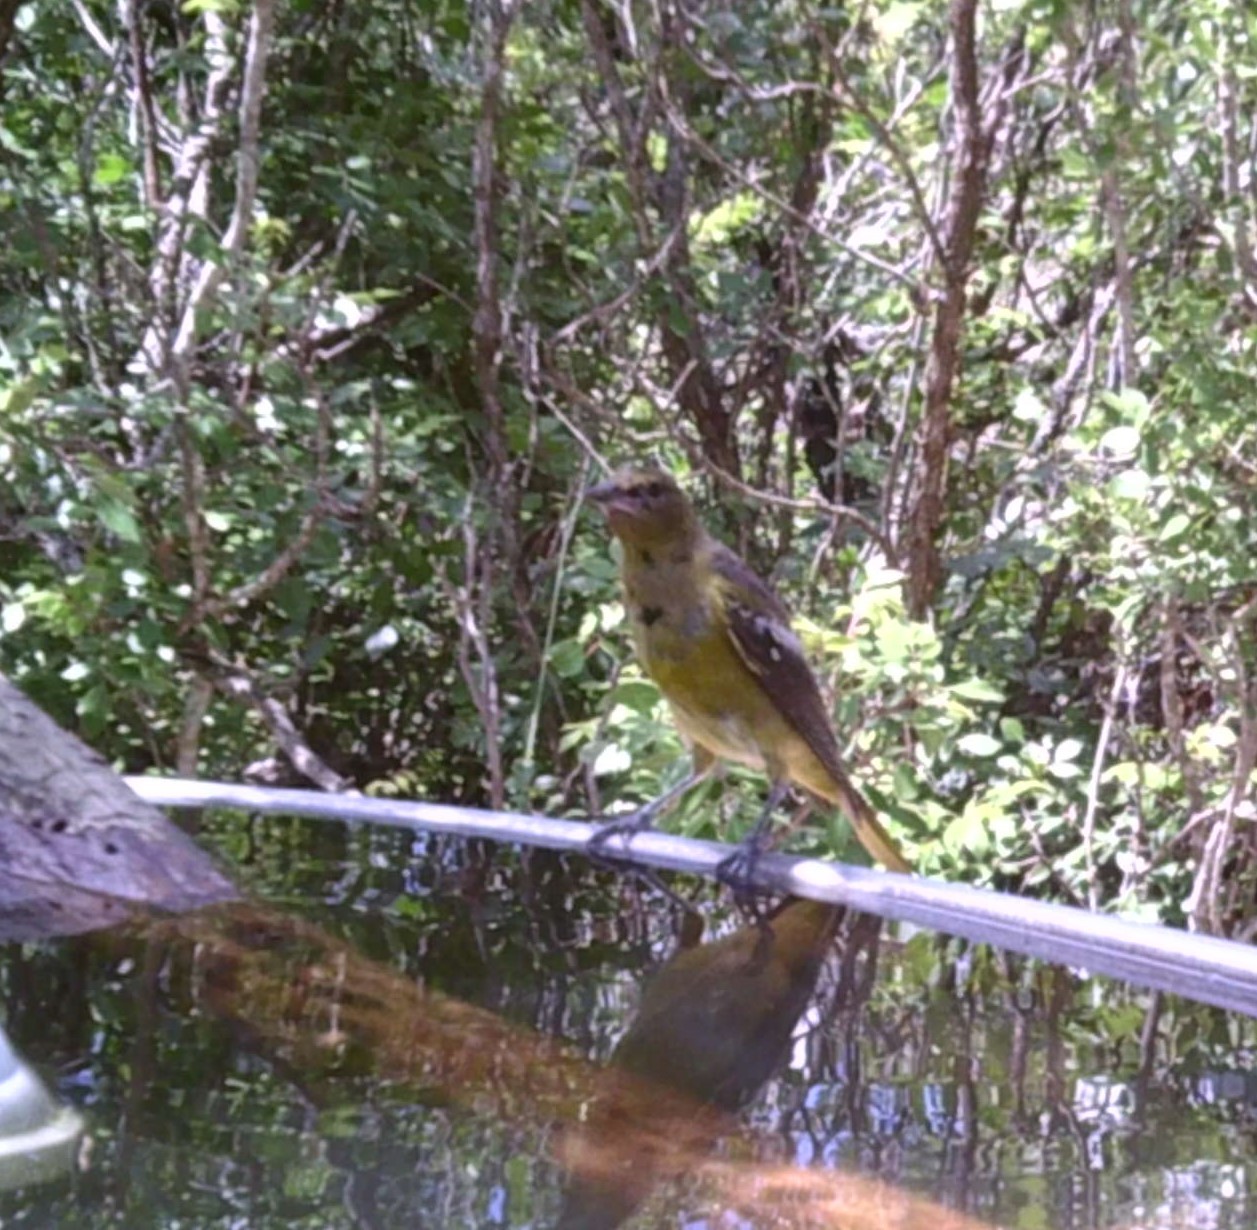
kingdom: Animalia
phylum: Chordata
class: Aves
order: Passeriformes
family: Icteridae
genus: Icterus
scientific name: Icterus parisorum
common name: Scott's oriole
